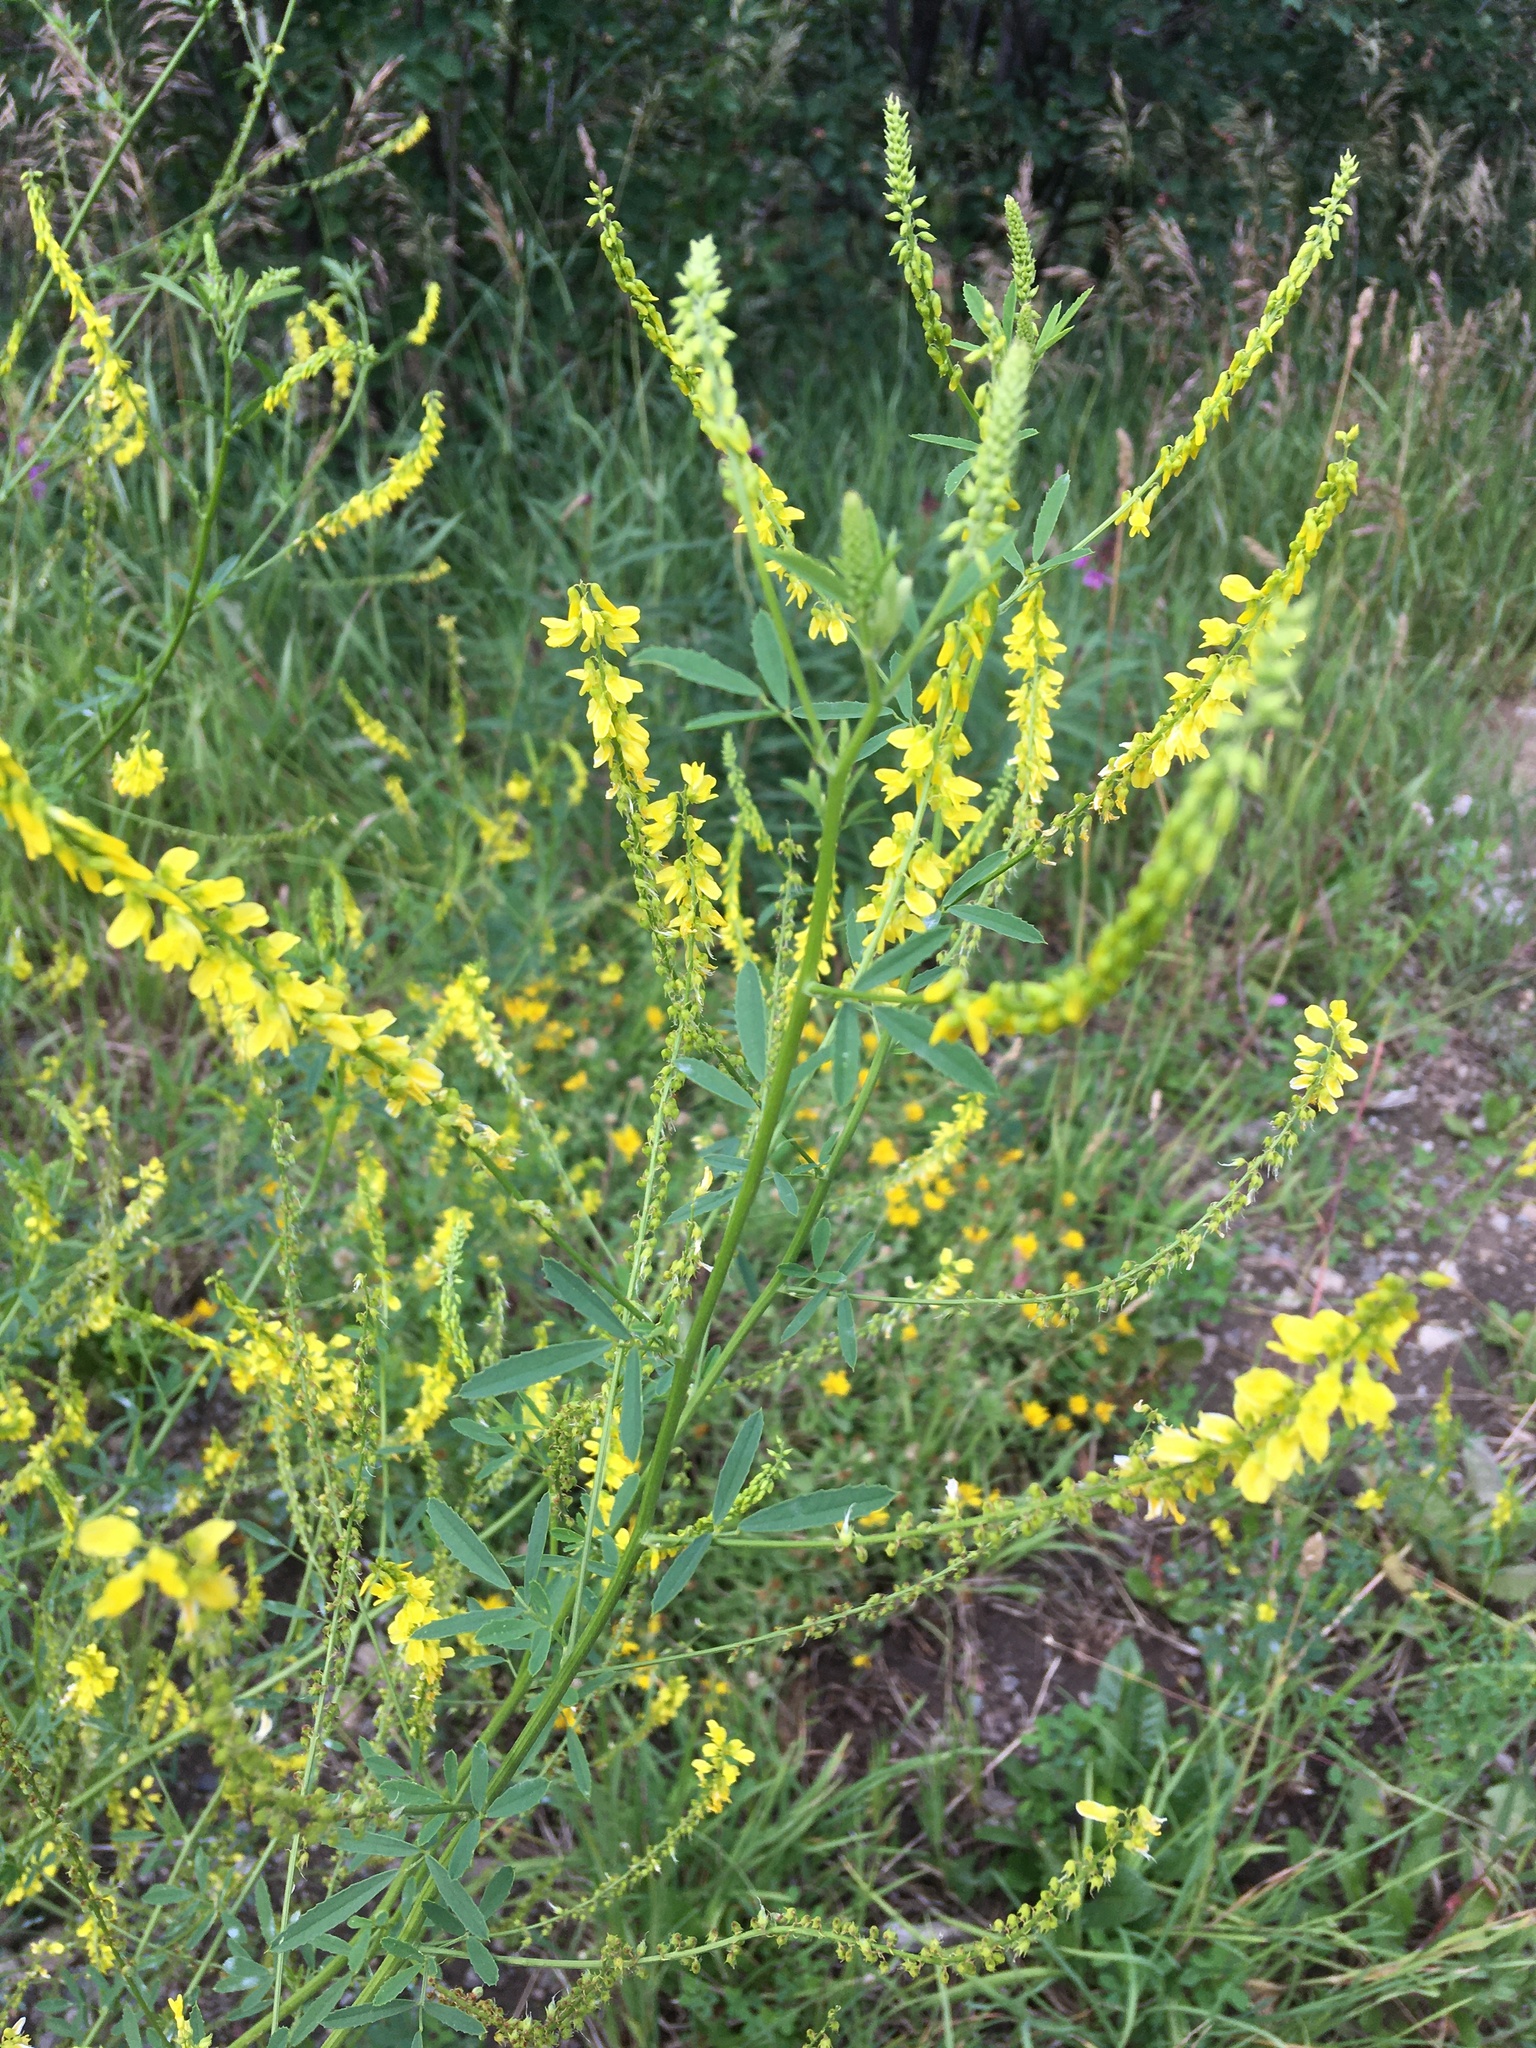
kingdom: Plantae
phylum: Tracheophyta
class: Magnoliopsida
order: Fabales
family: Fabaceae
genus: Melilotus
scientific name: Melilotus officinalis
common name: Sweetclover
